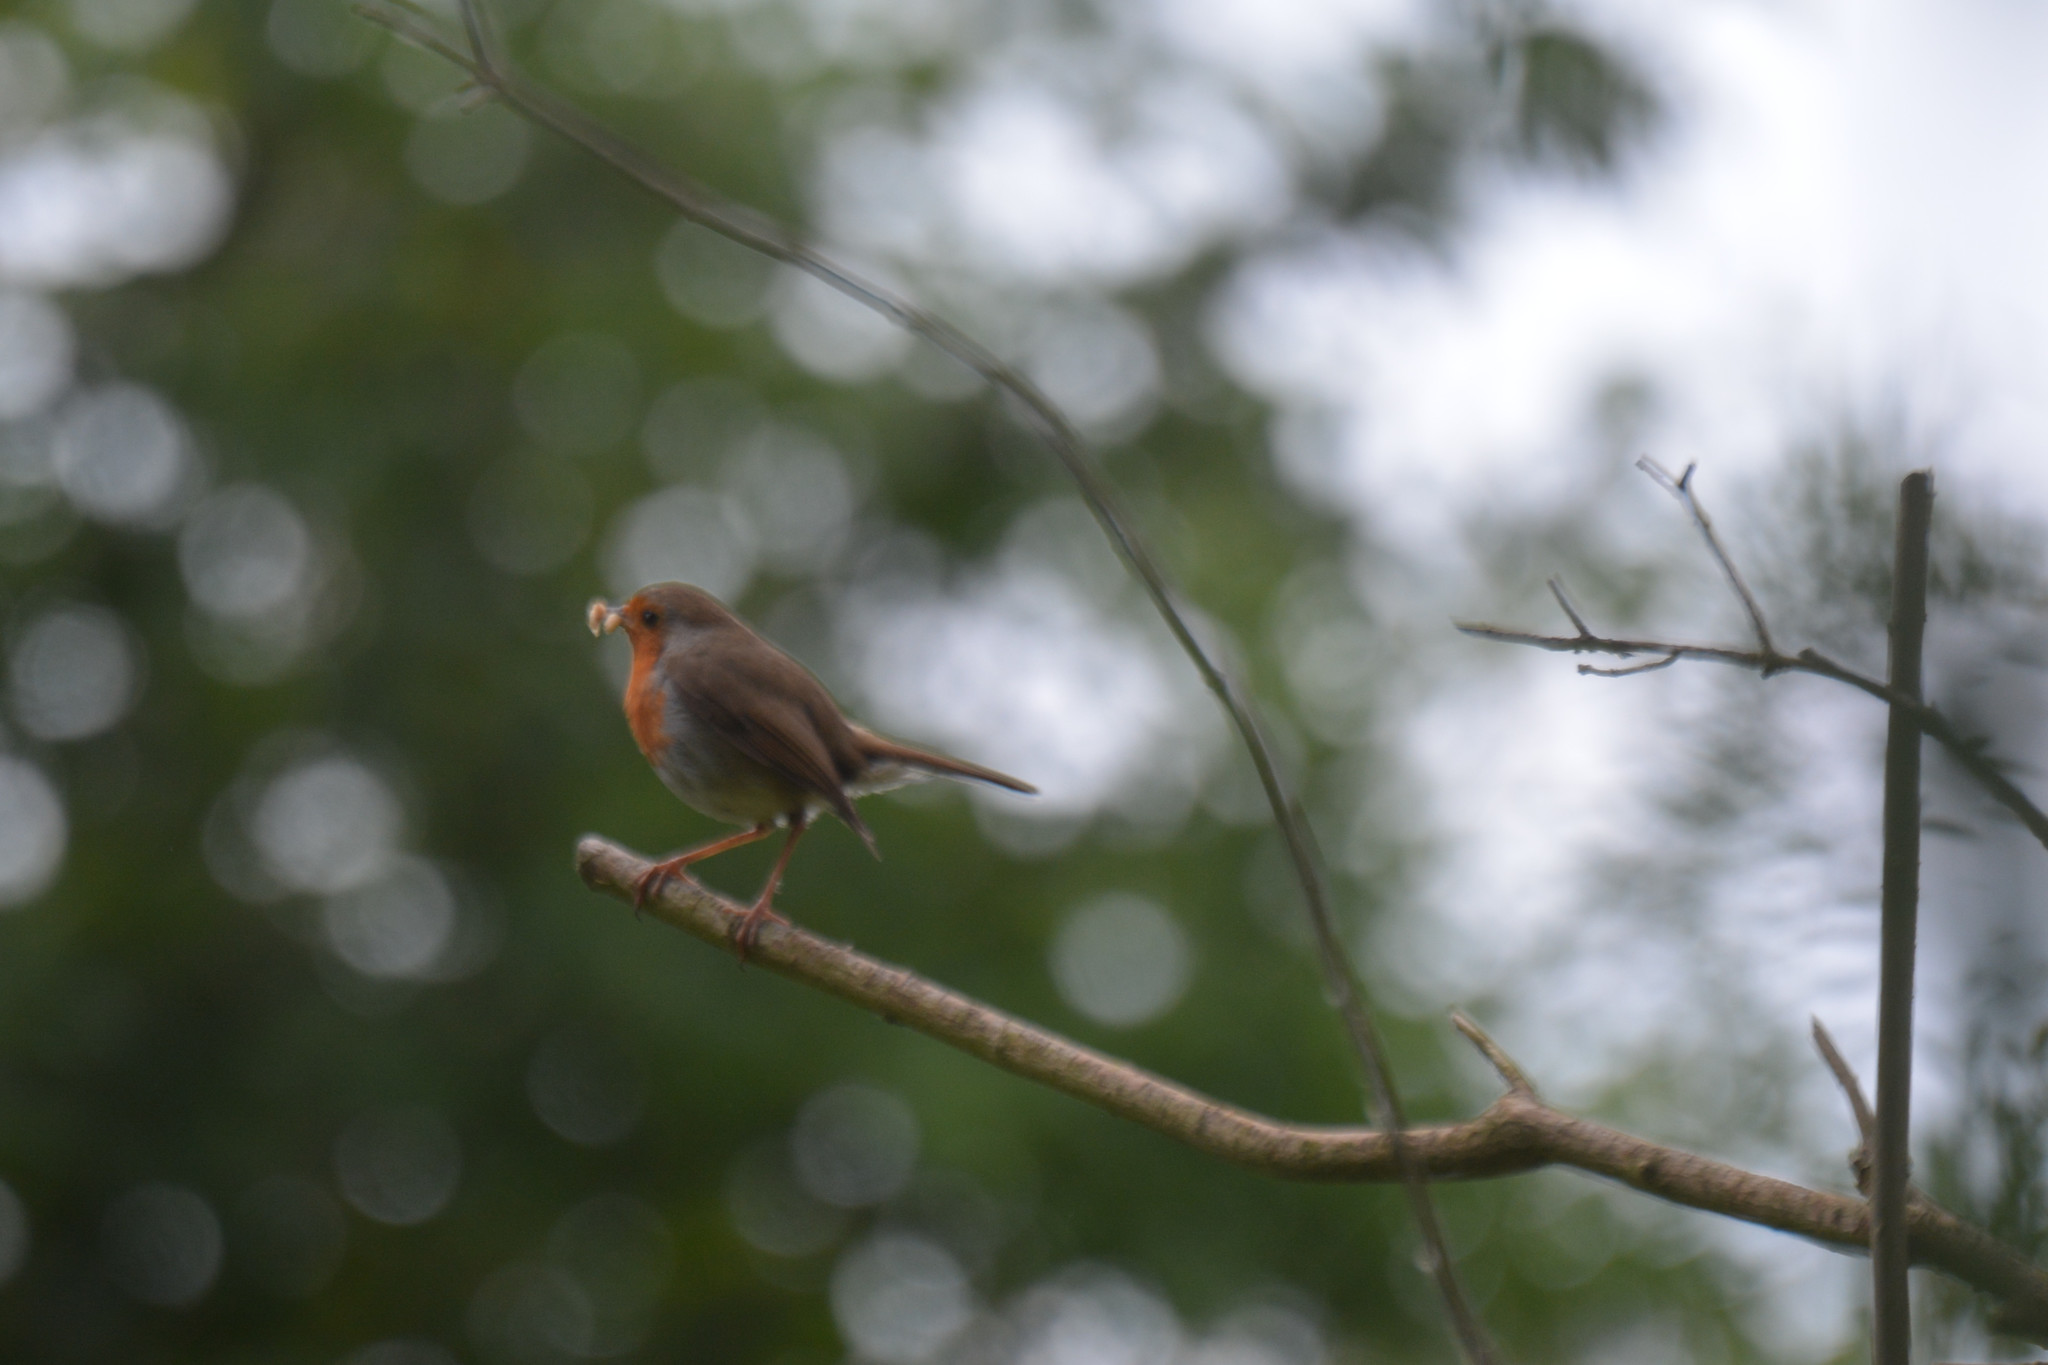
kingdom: Animalia
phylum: Chordata
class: Aves
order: Passeriformes
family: Muscicapidae
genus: Erithacus
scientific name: Erithacus rubecula
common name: European robin
